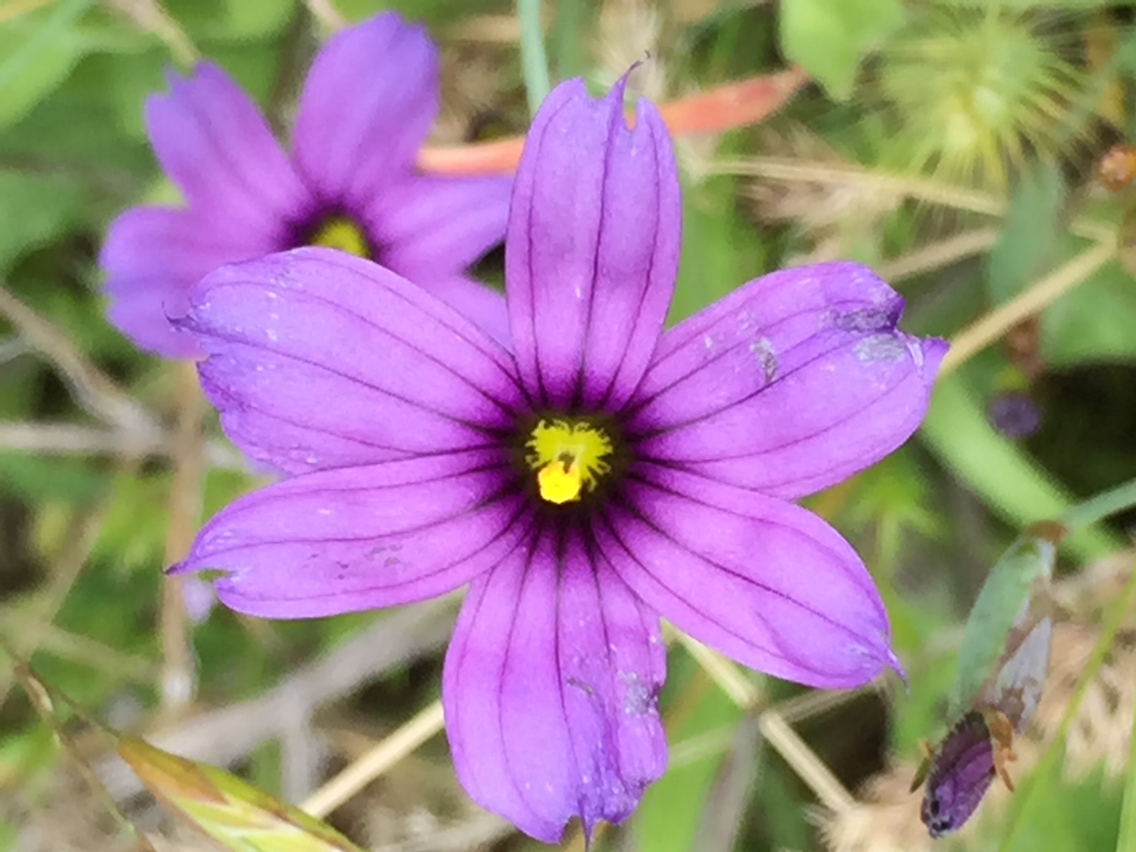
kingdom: Plantae
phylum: Tracheophyta
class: Liliopsida
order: Asparagales
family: Iridaceae
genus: Sisyrinchium
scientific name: Sisyrinchium bellum
